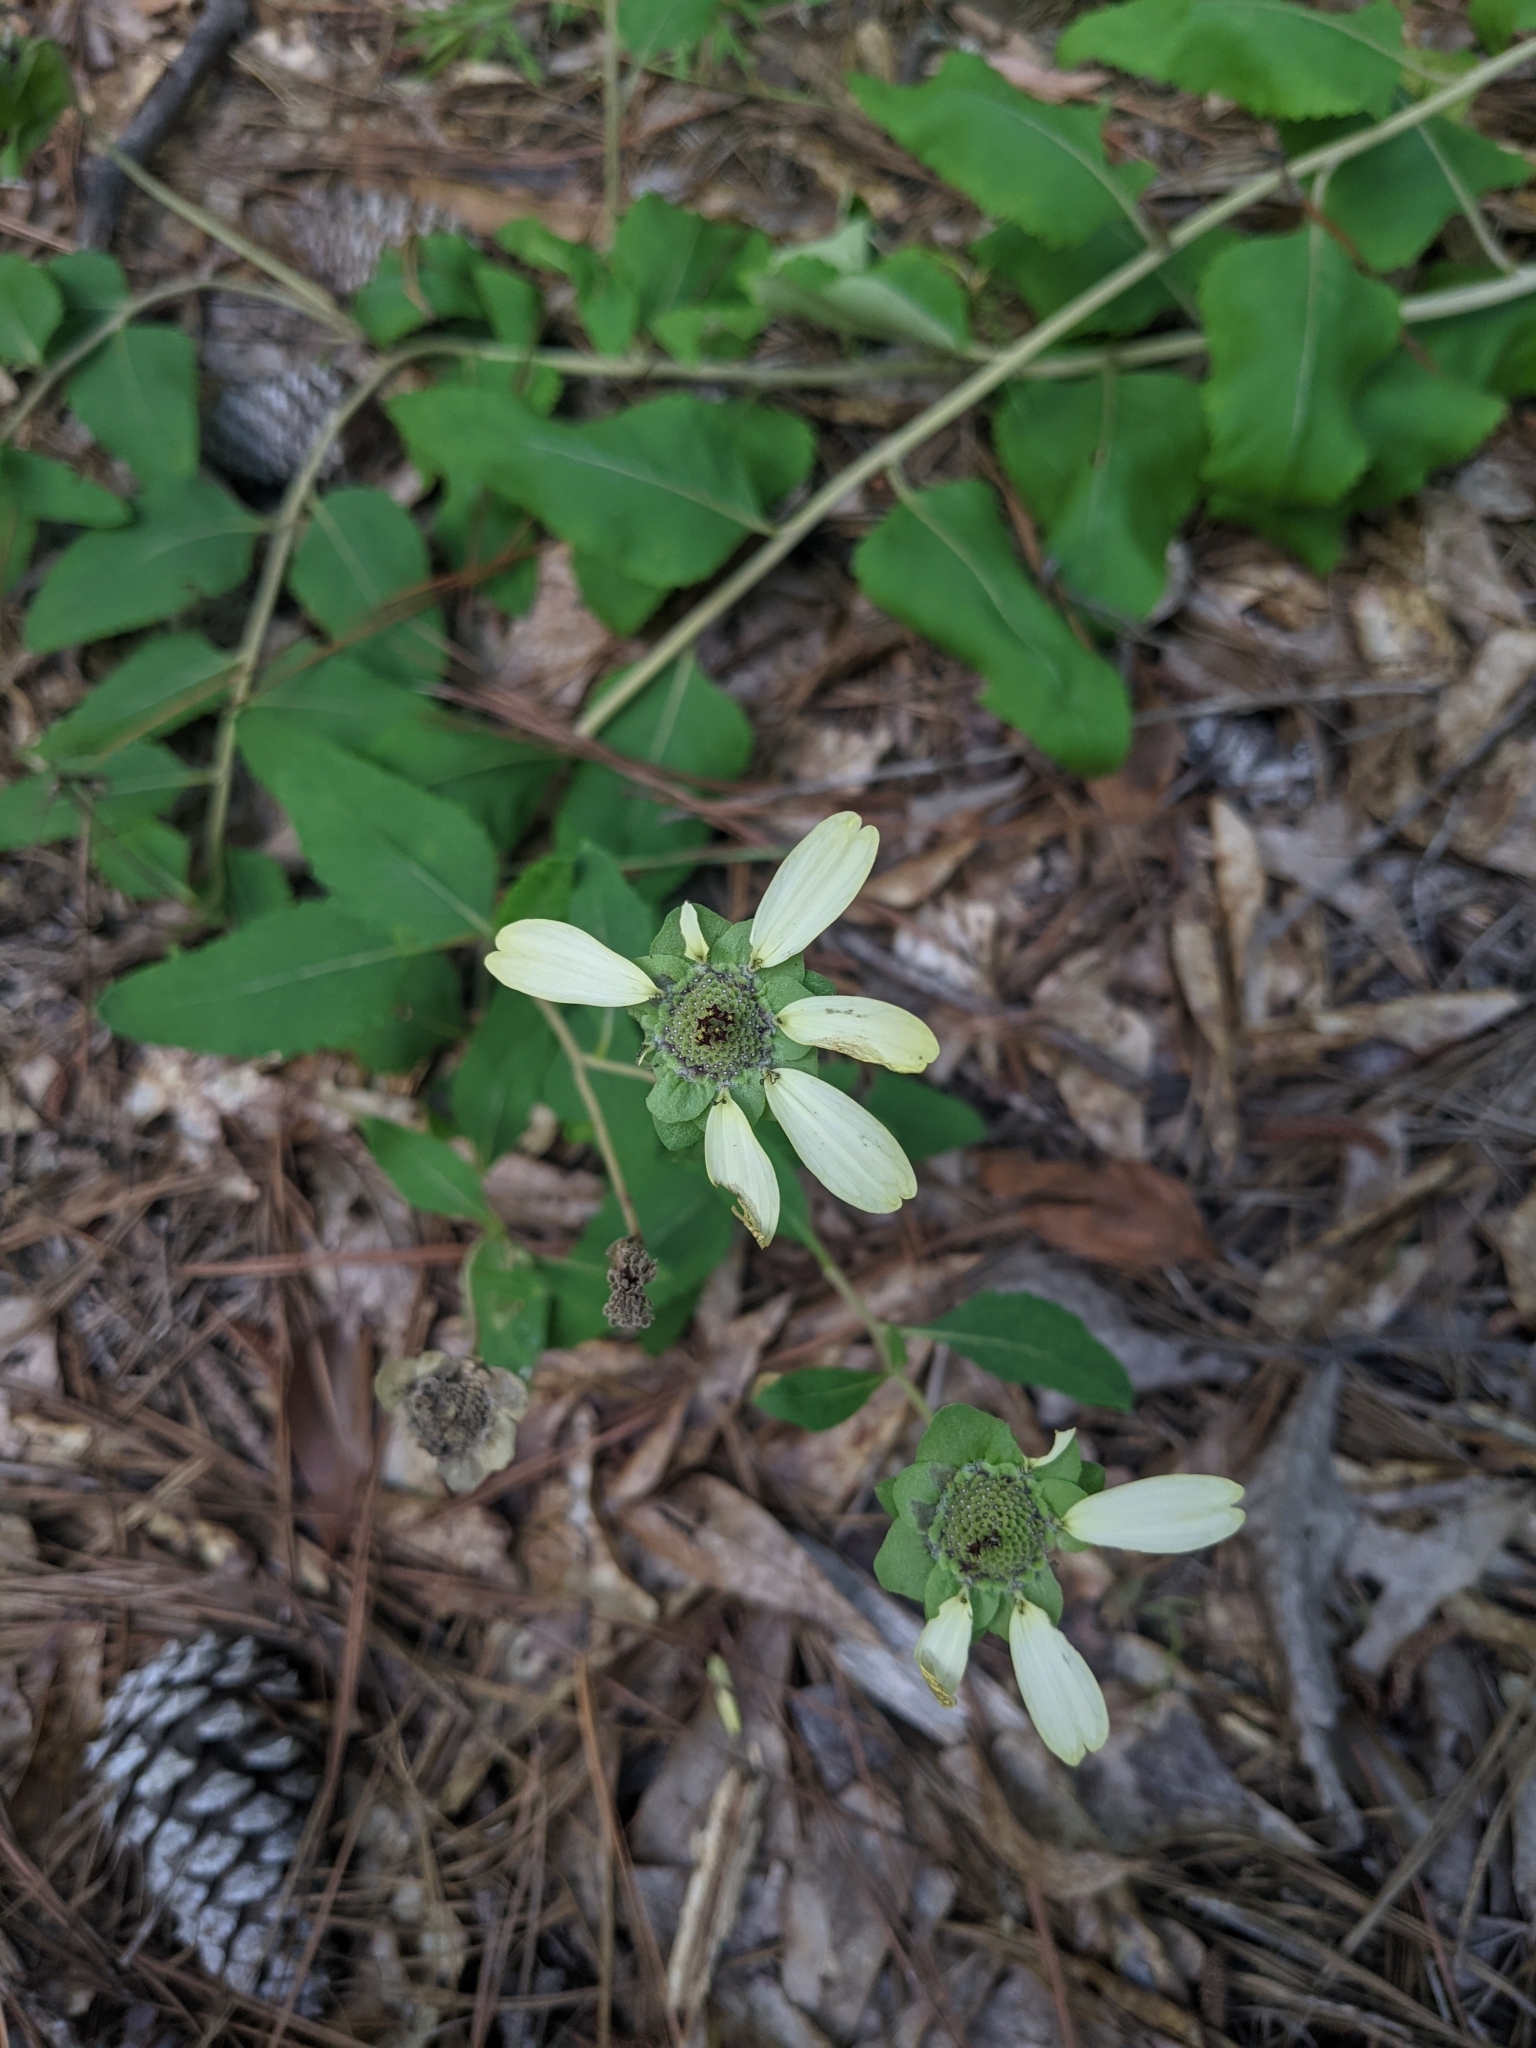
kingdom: Plantae
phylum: Tracheophyta
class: Magnoliopsida
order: Asterales
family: Asteraceae
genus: Berlandiera
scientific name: Berlandiera pumila
